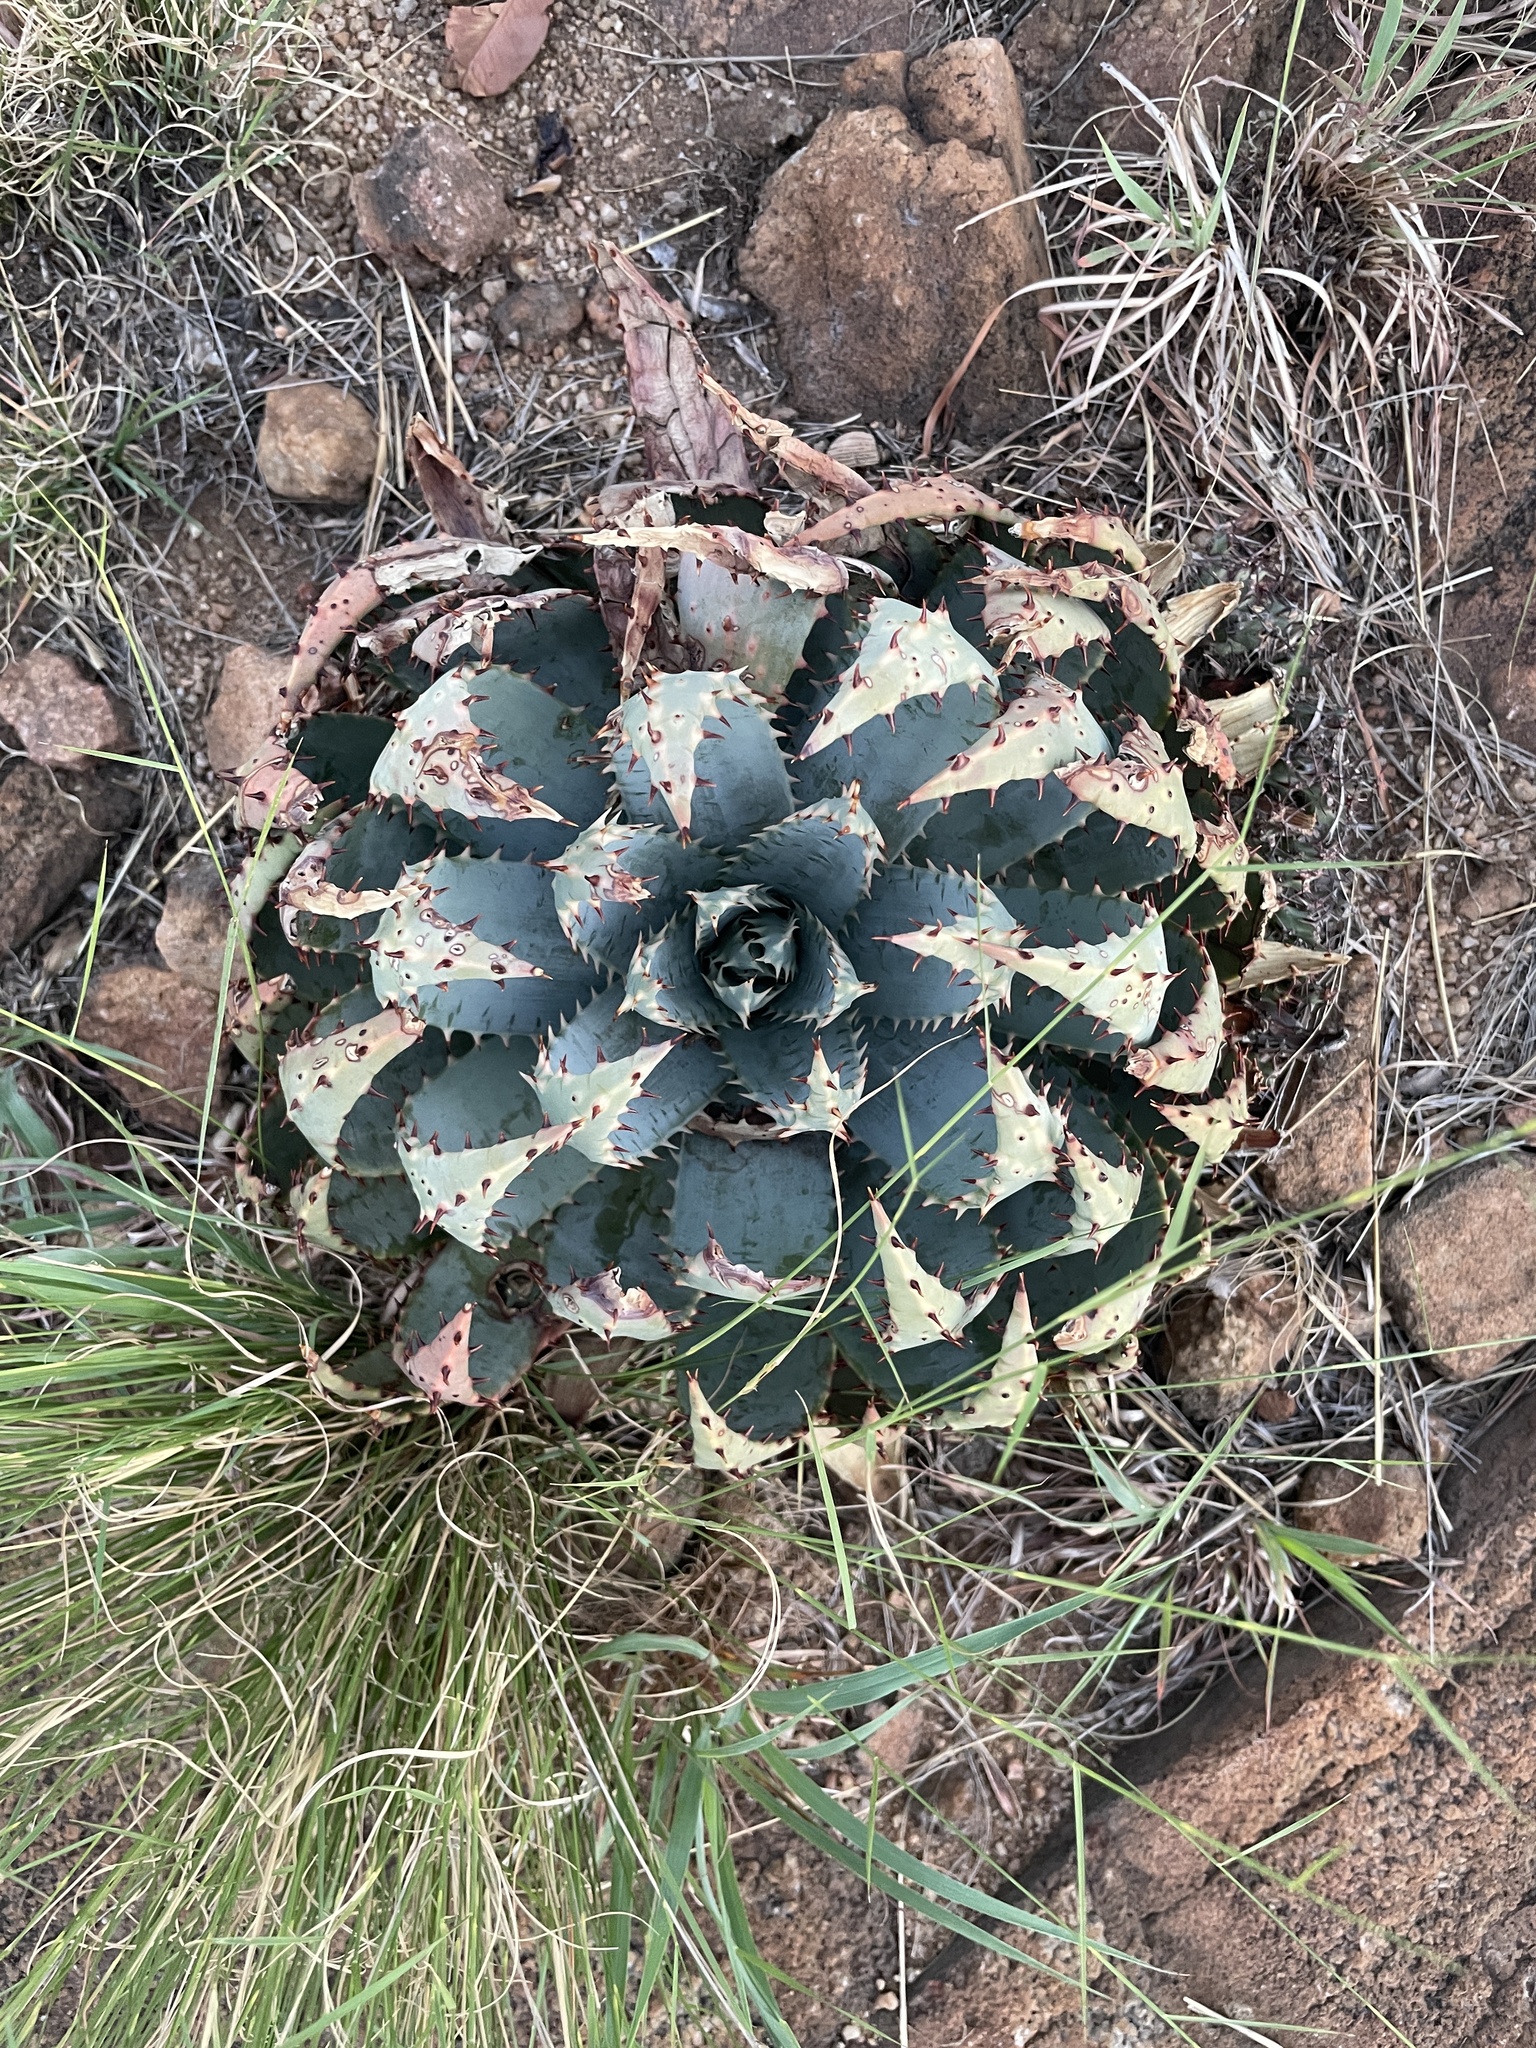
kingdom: Plantae
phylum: Tracheophyta
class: Liliopsida
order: Asparagales
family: Asphodelaceae
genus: Aloe
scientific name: Aloe peglerae
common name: Red-hot poker
